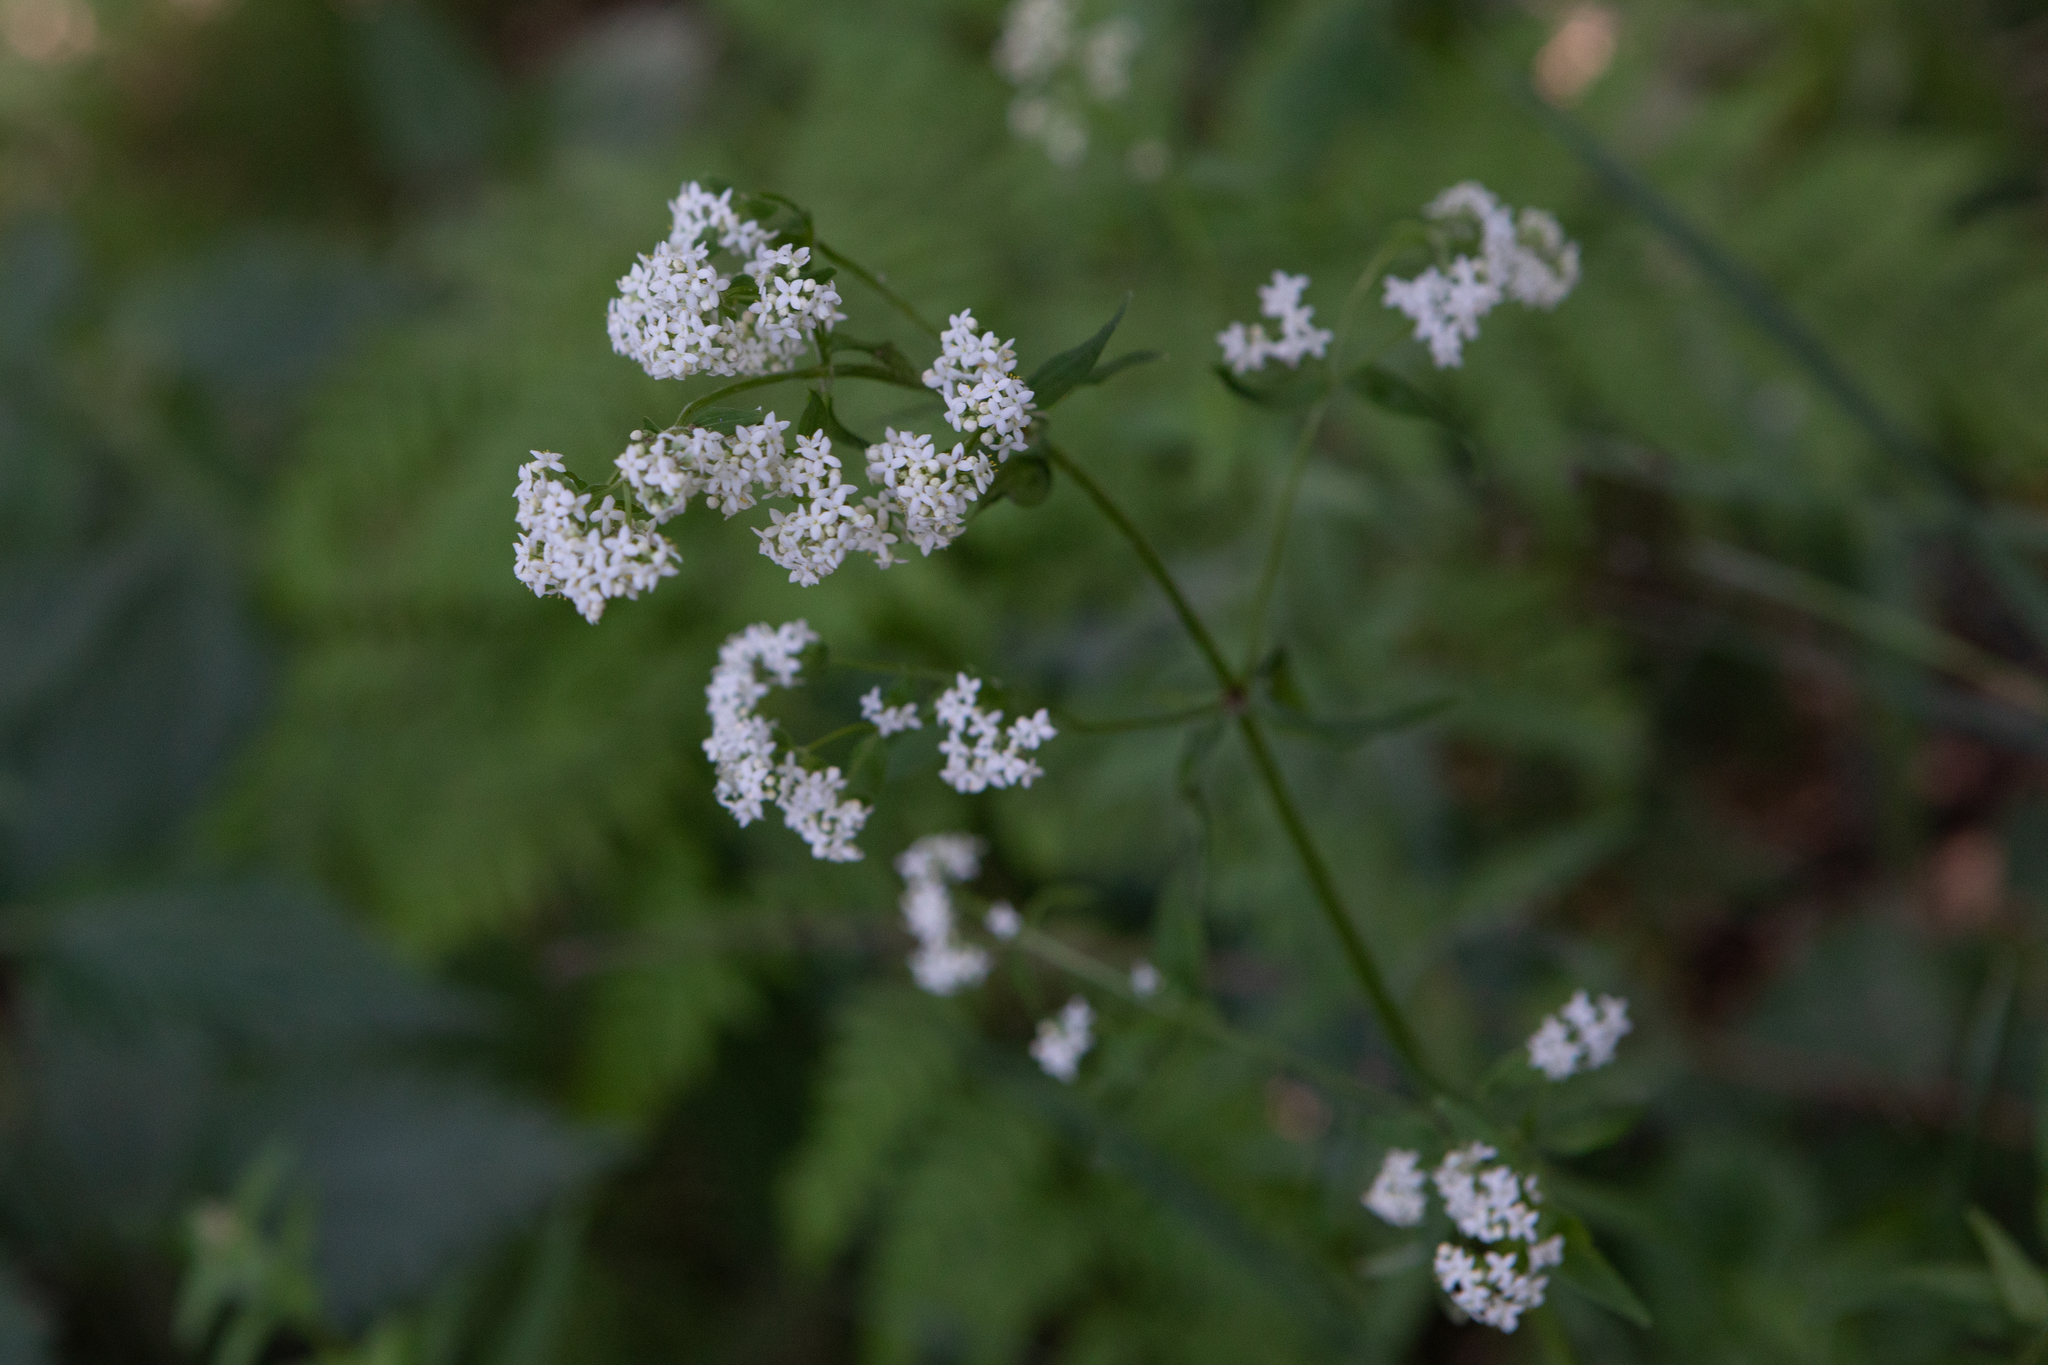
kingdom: Plantae
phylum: Tracheophyta
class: Magnoliopsida
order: Gentianales
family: Rubiaceae
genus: Galium
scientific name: Galium boreale
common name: Northern bedstraw
